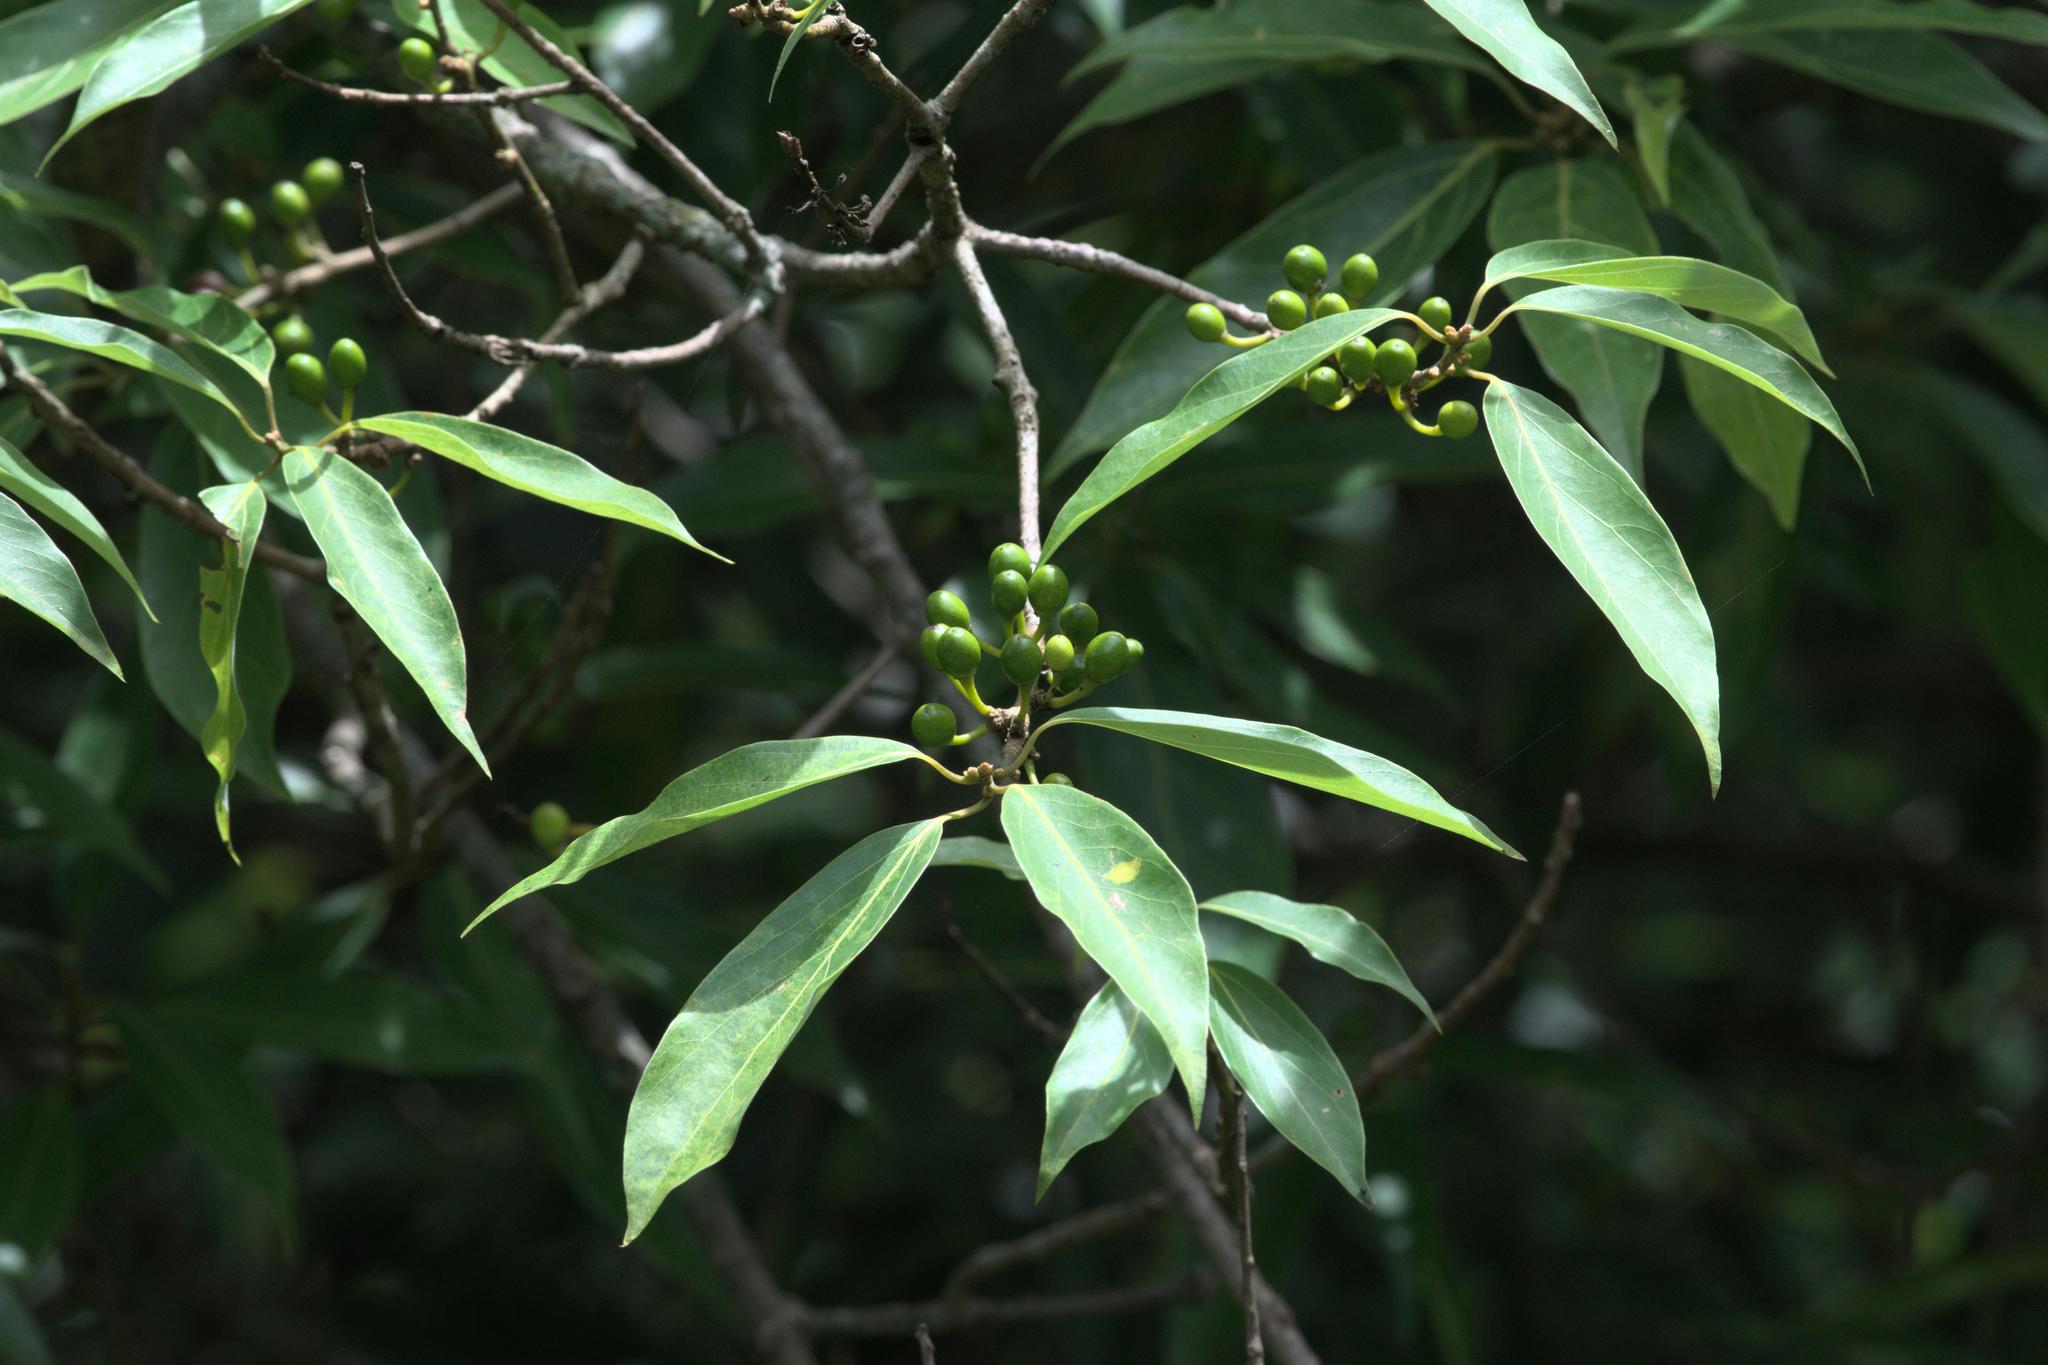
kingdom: Plantae
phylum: Tracheophyta
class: Magnoliopsida
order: Laurales
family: Lauraceae
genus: Neolitsea
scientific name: Neolitsea pallens
